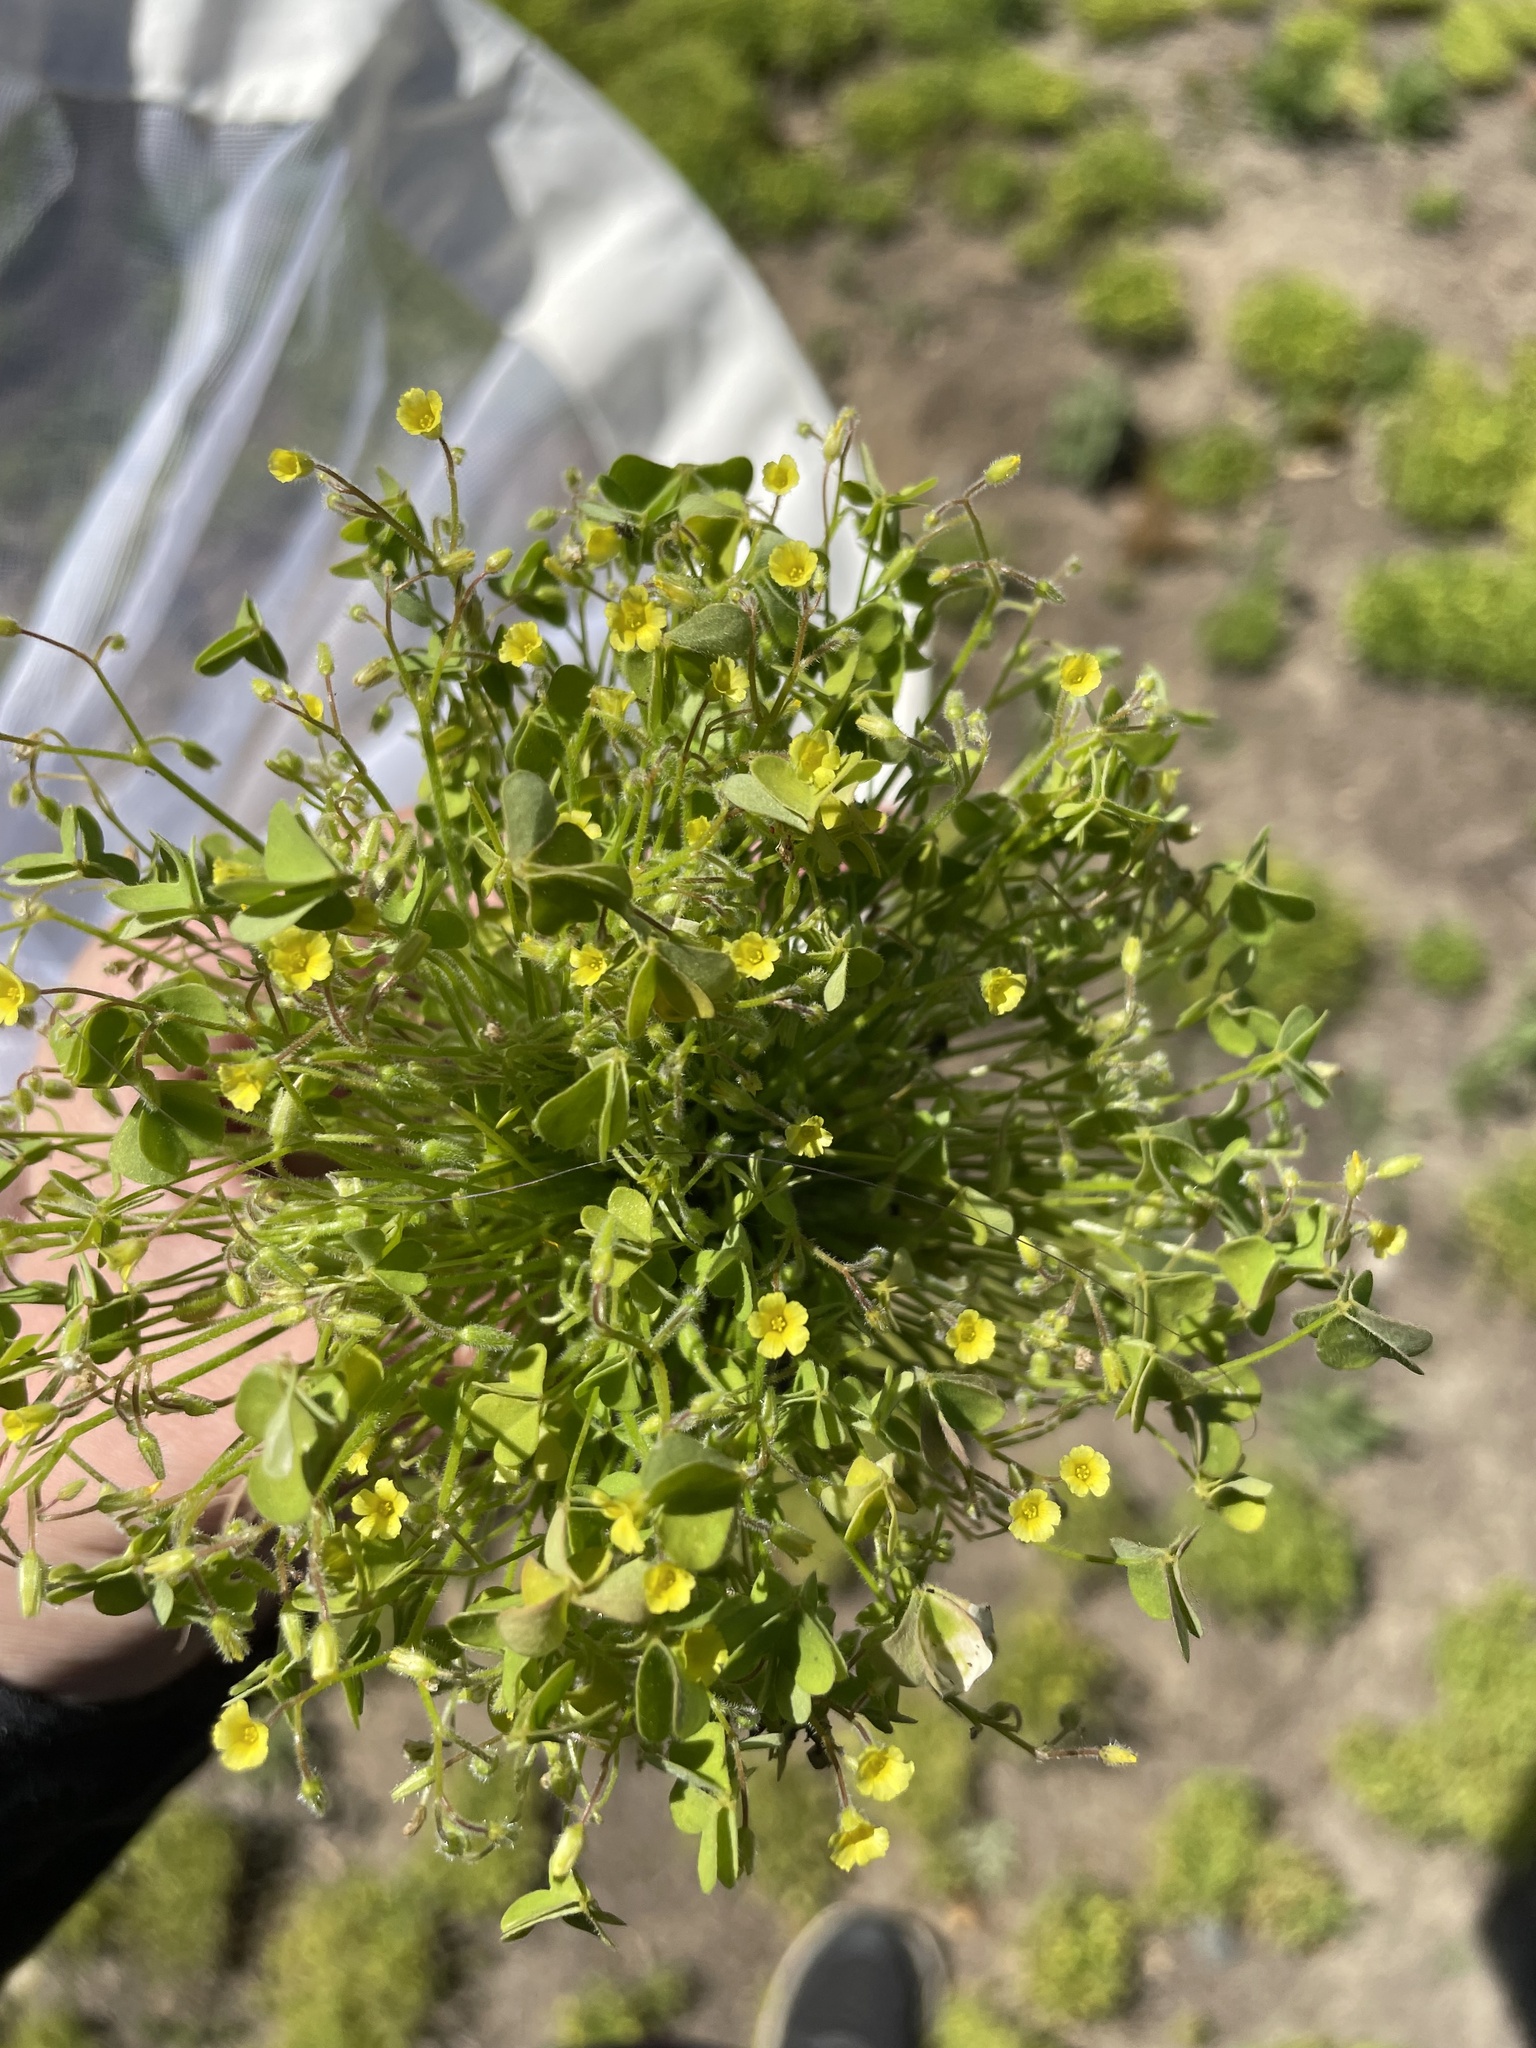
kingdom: Plantae
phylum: Tracheophyta
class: Magnoliopsida
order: Oxalidales
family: Oxalidaceae
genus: Oxalis
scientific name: Oxalis laxa
